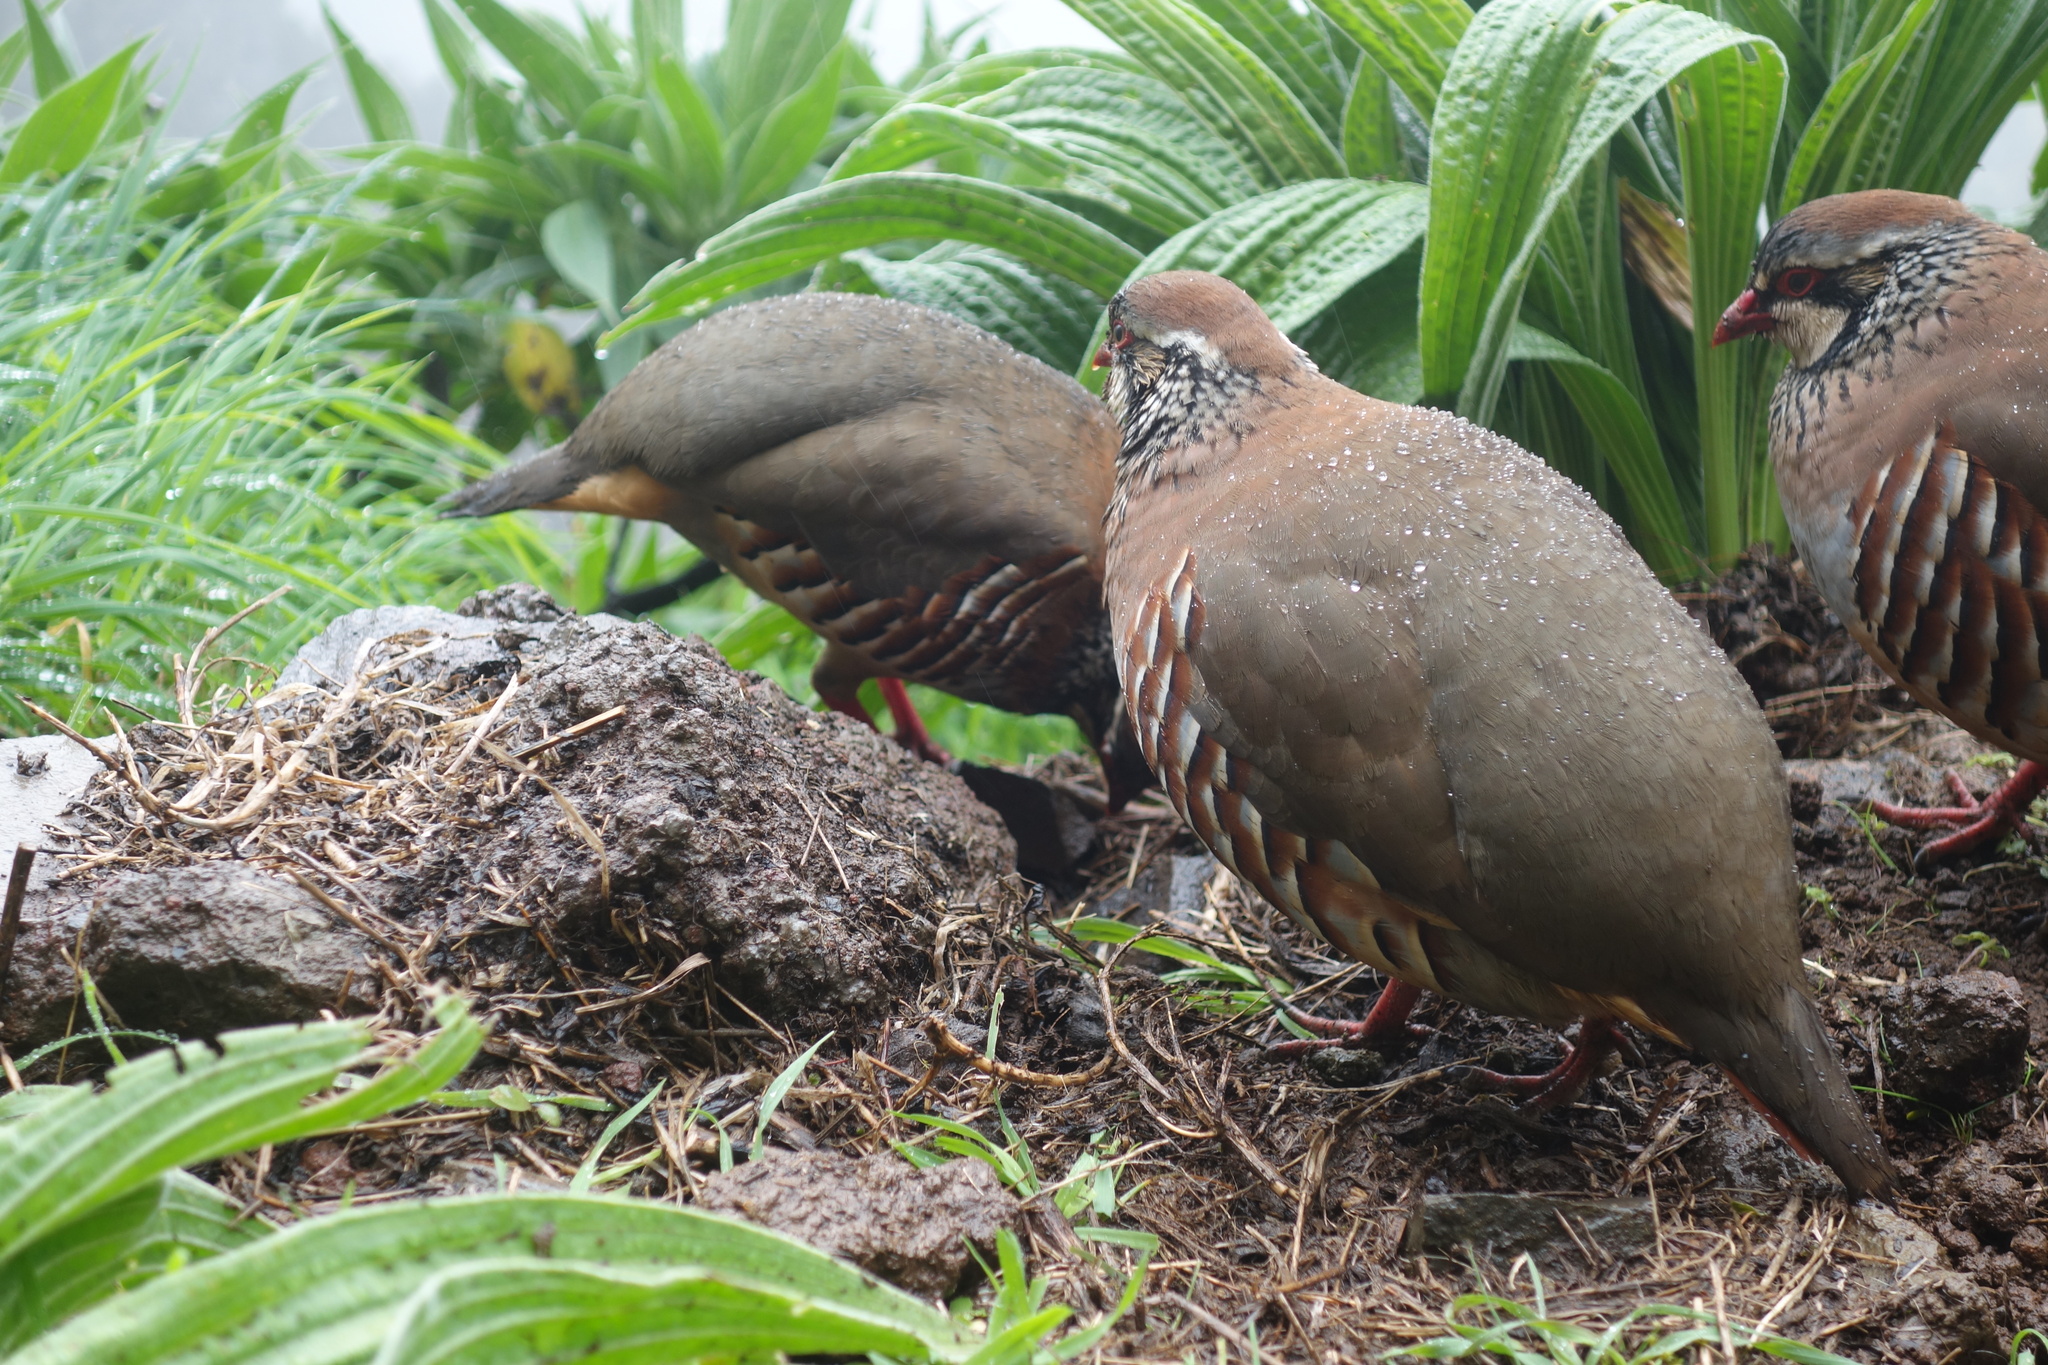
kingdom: Animalia
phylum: Chordata
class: Aves
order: Galliformes
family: Phasianidae
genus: Alectoris
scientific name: Alectoris rufa
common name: Red-legged partridge
